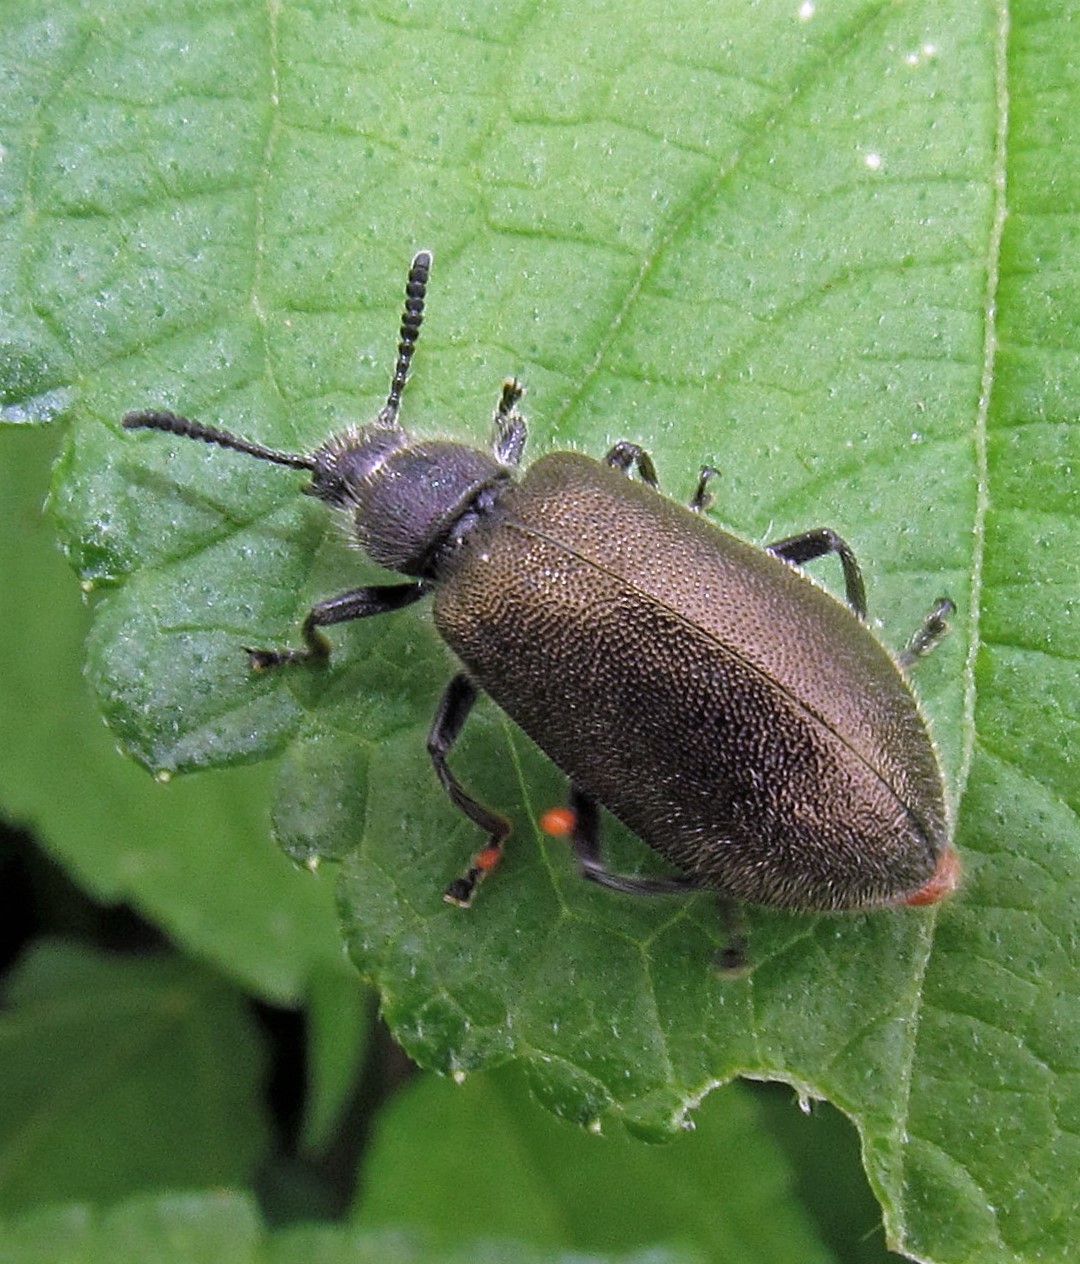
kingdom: Animalia
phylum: Arthropoda
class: Insecta
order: Coleoptera
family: Tenebrionidae
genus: Lagria
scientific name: Lagria villosa
